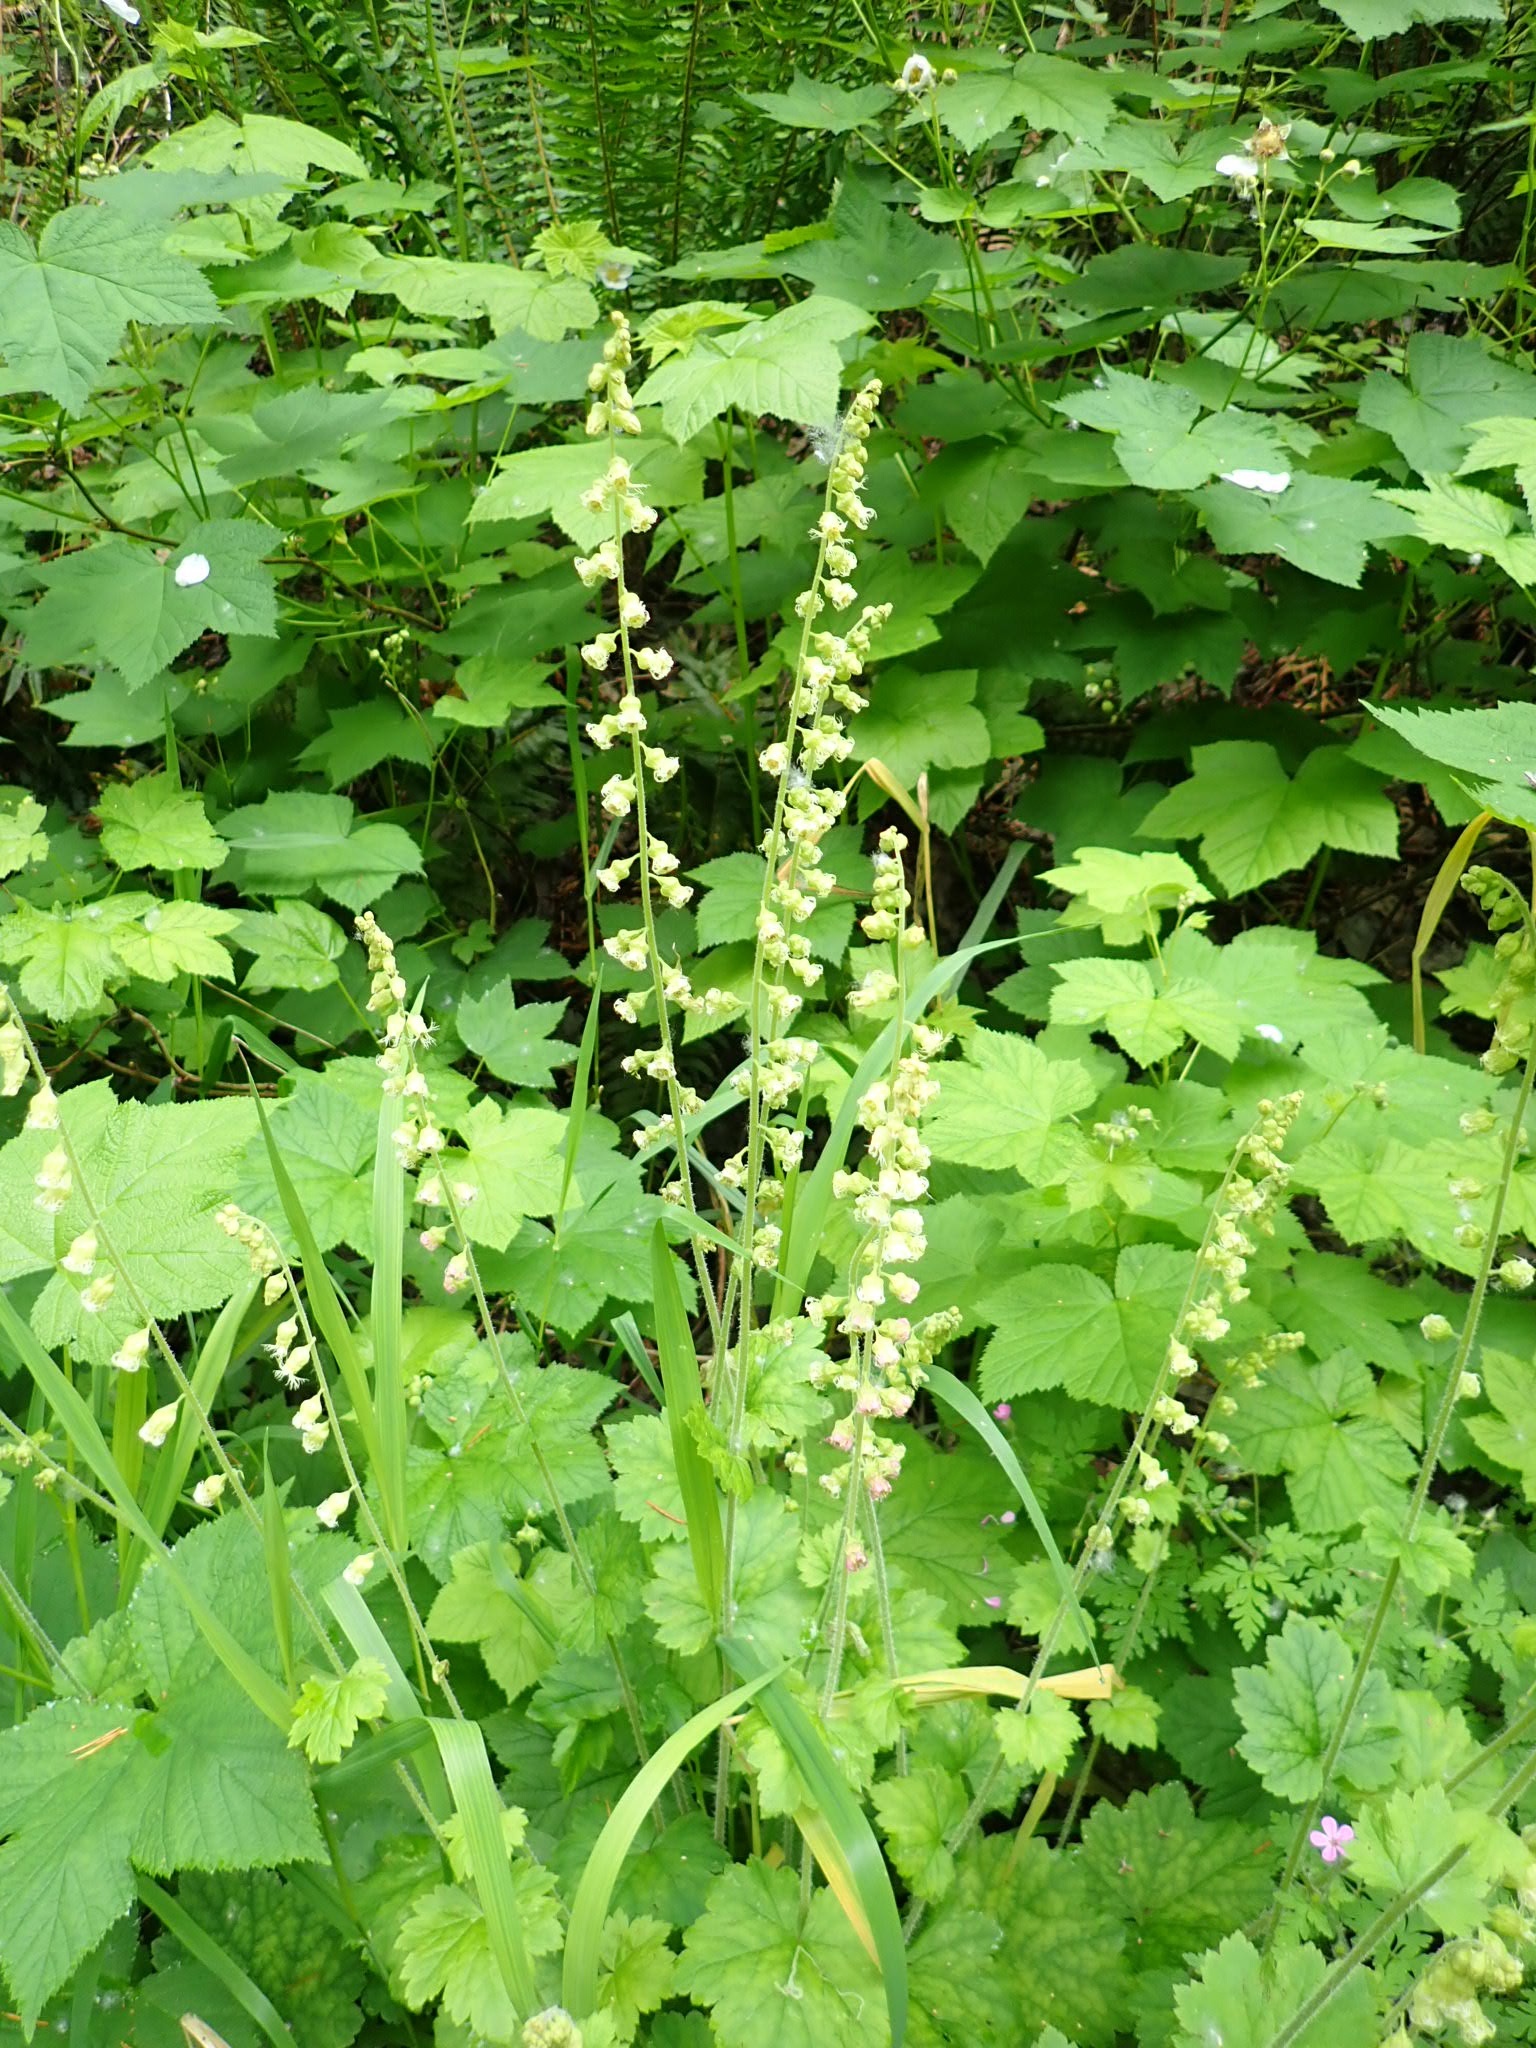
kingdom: Plantae
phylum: Tracheophyta
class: Magnoliopsida
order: Saxifragales
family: Saxifragaceae
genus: Tellima
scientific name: Tellima grandiflora
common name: Fringecups
